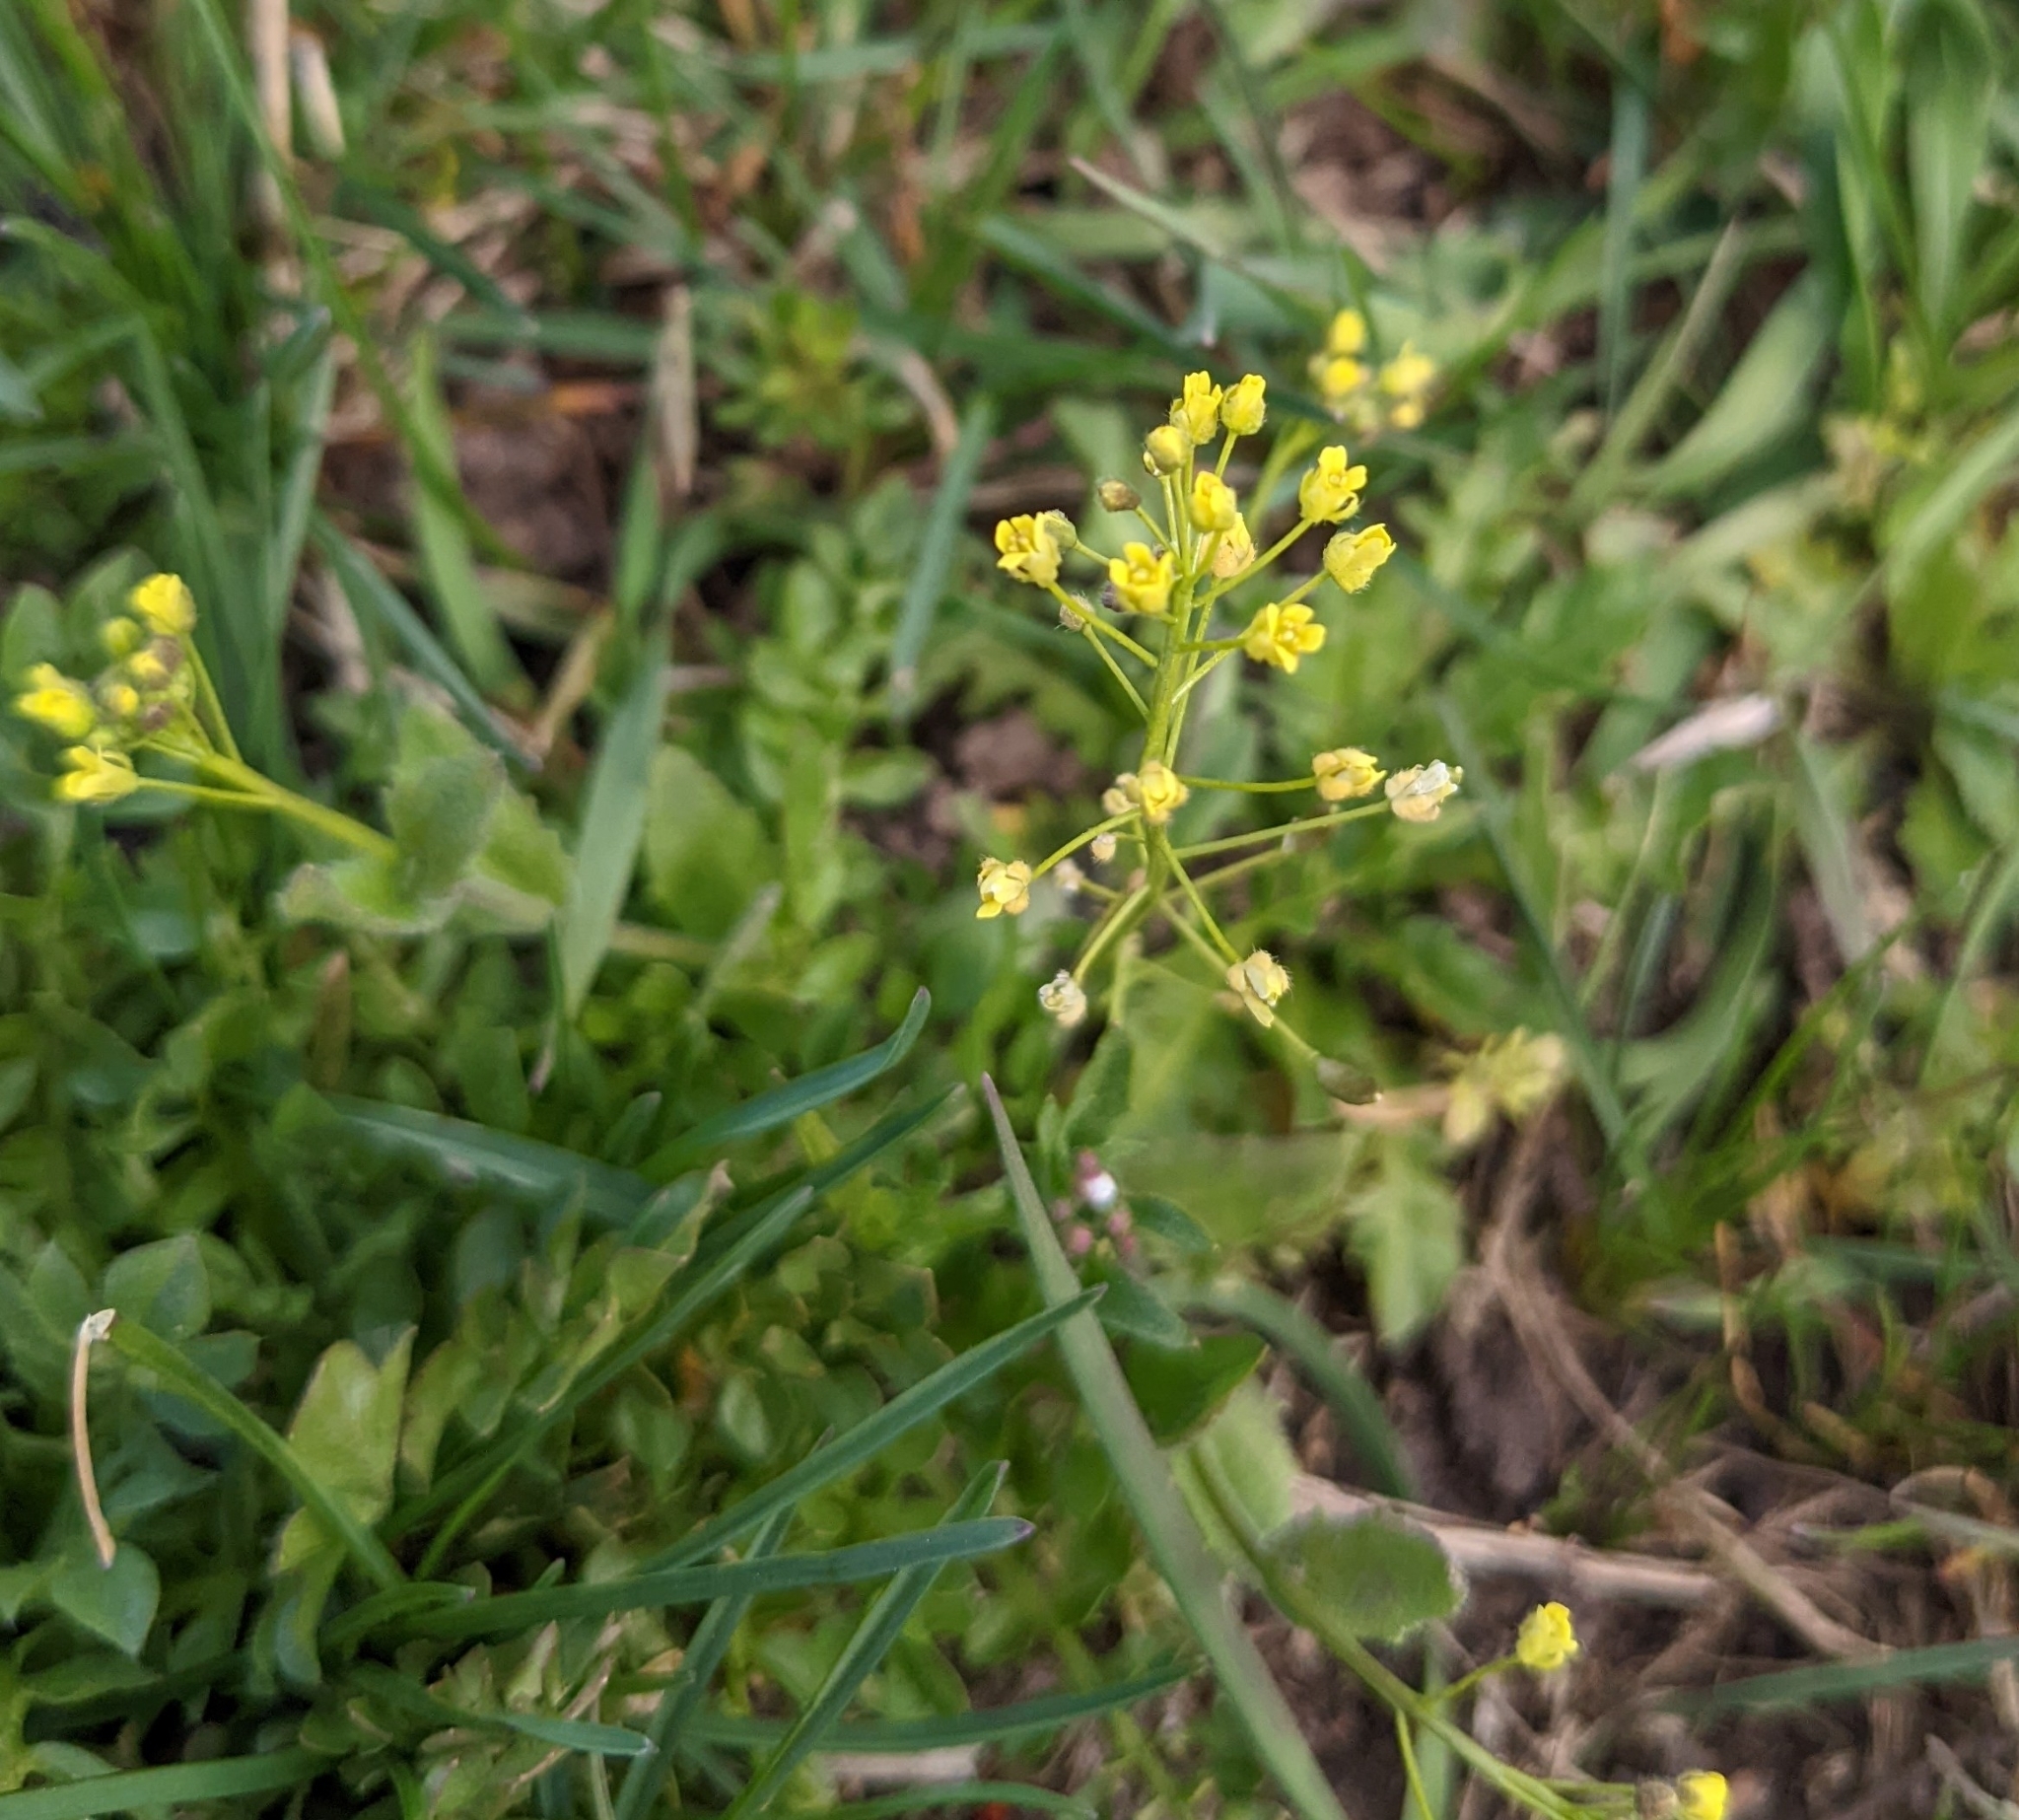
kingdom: Plantae
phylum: Tracheophyta
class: Magnoliopsida
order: Brassicales
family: Brassicaceae
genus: Draba
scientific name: Draba nemorosa
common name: Wood whitlow-grass
